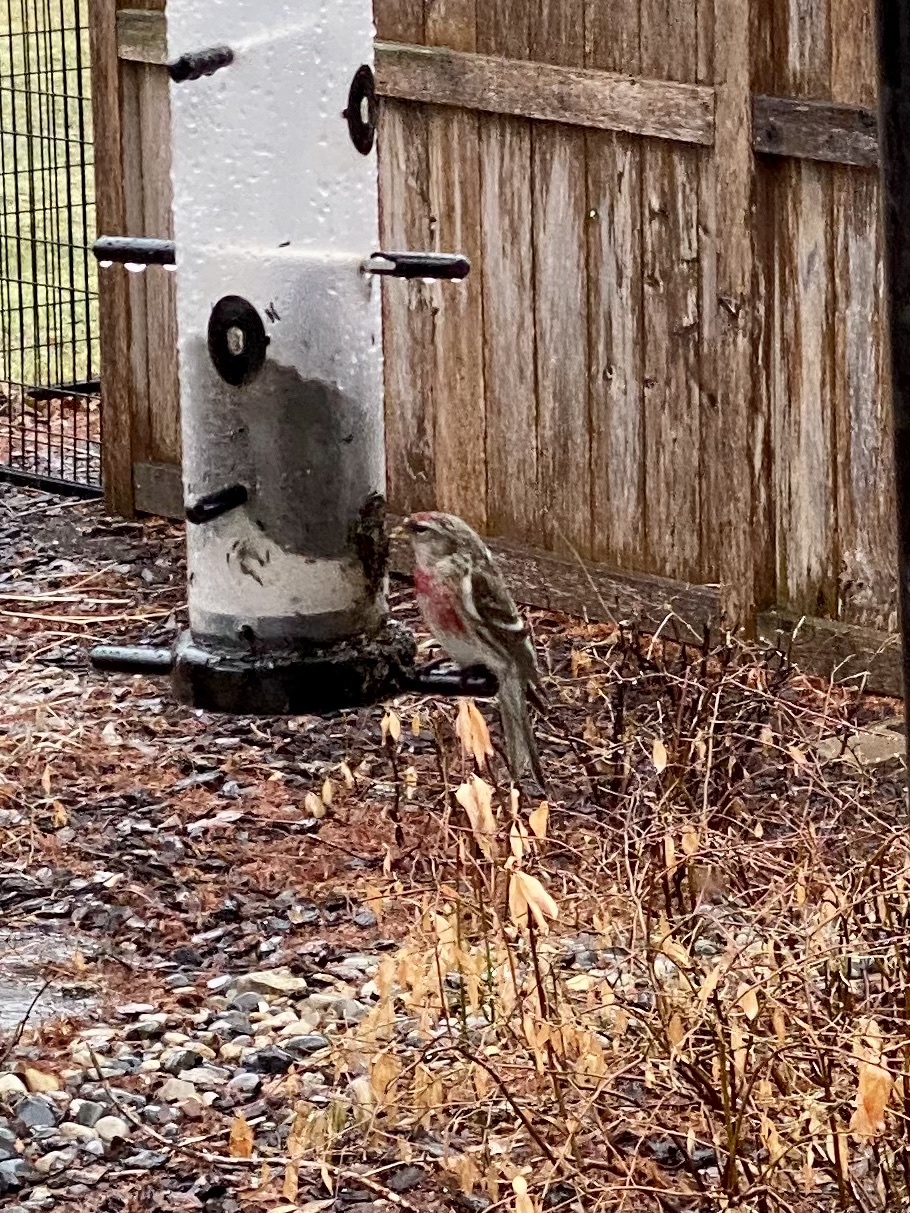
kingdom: Animalia
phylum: Chordata
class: Aves
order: Passeriformes
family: Fringillidae
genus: Acanthis
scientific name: Acanthis flammea
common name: Common redpoll
